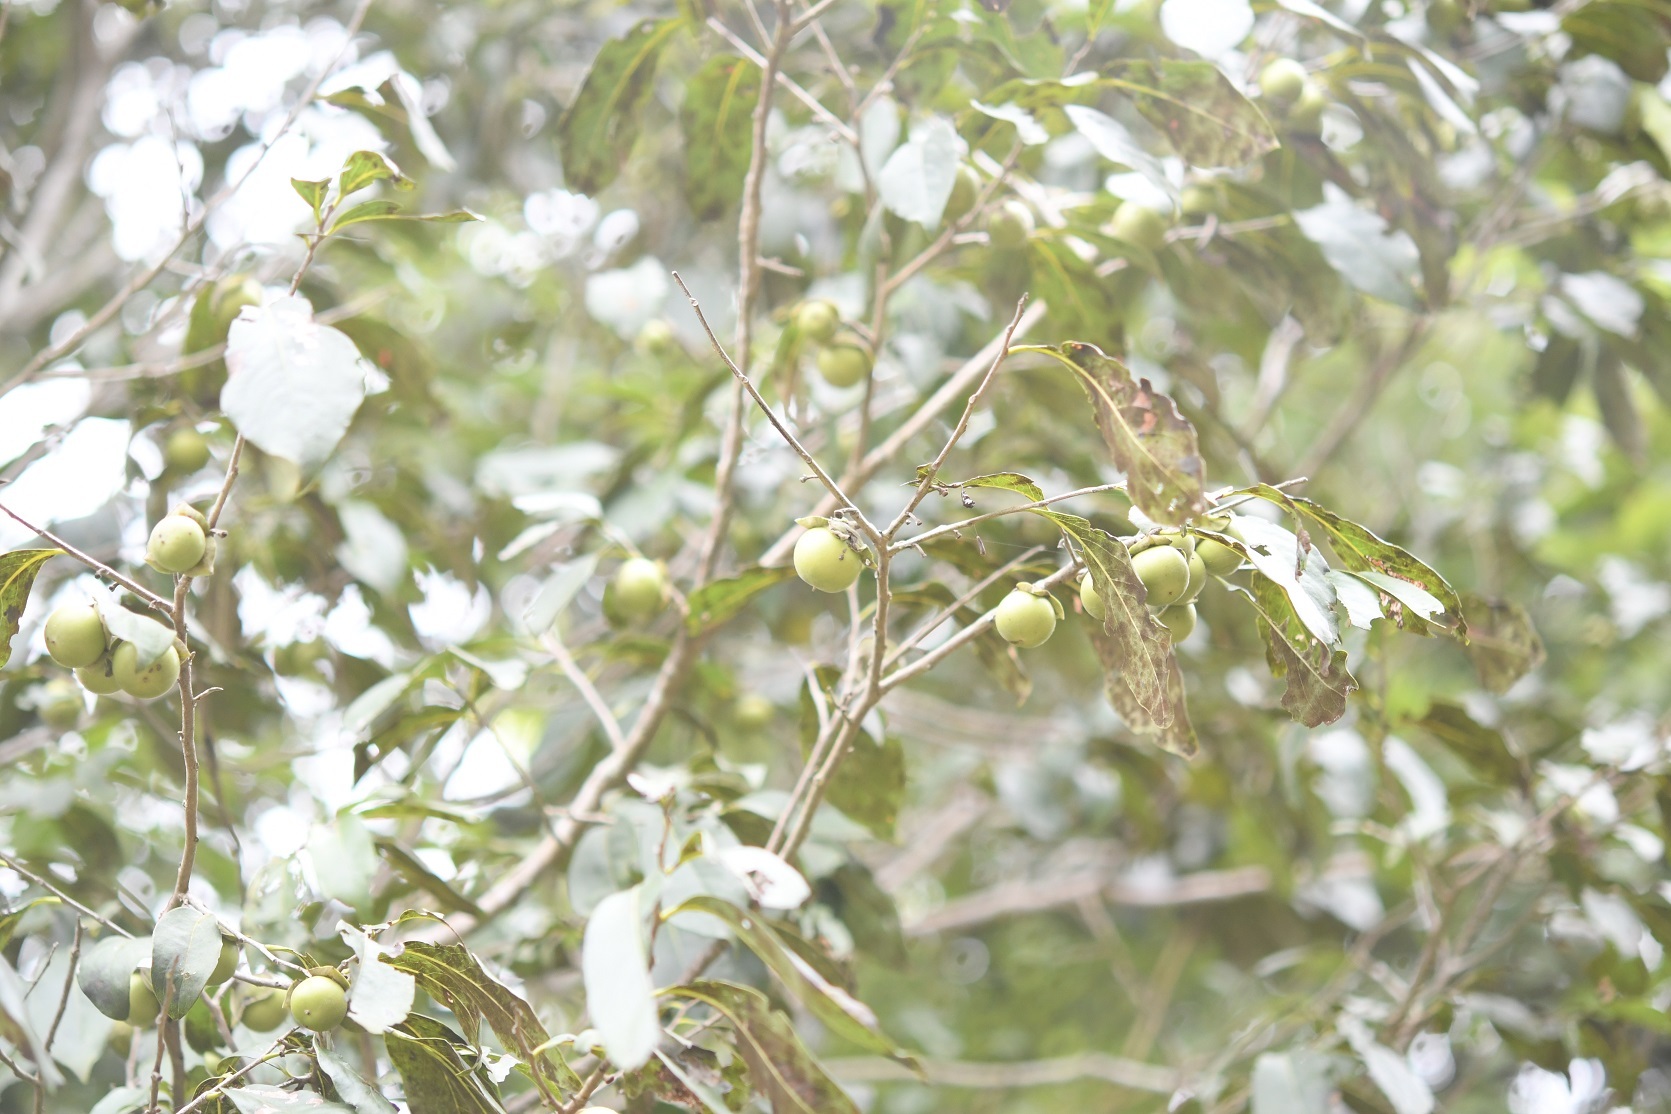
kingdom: Plantae
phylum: Tracheophyta
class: Magnoliopsida
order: Ericales
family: Ebenaceae
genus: Diospyros
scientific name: Diospyros salicifolia
